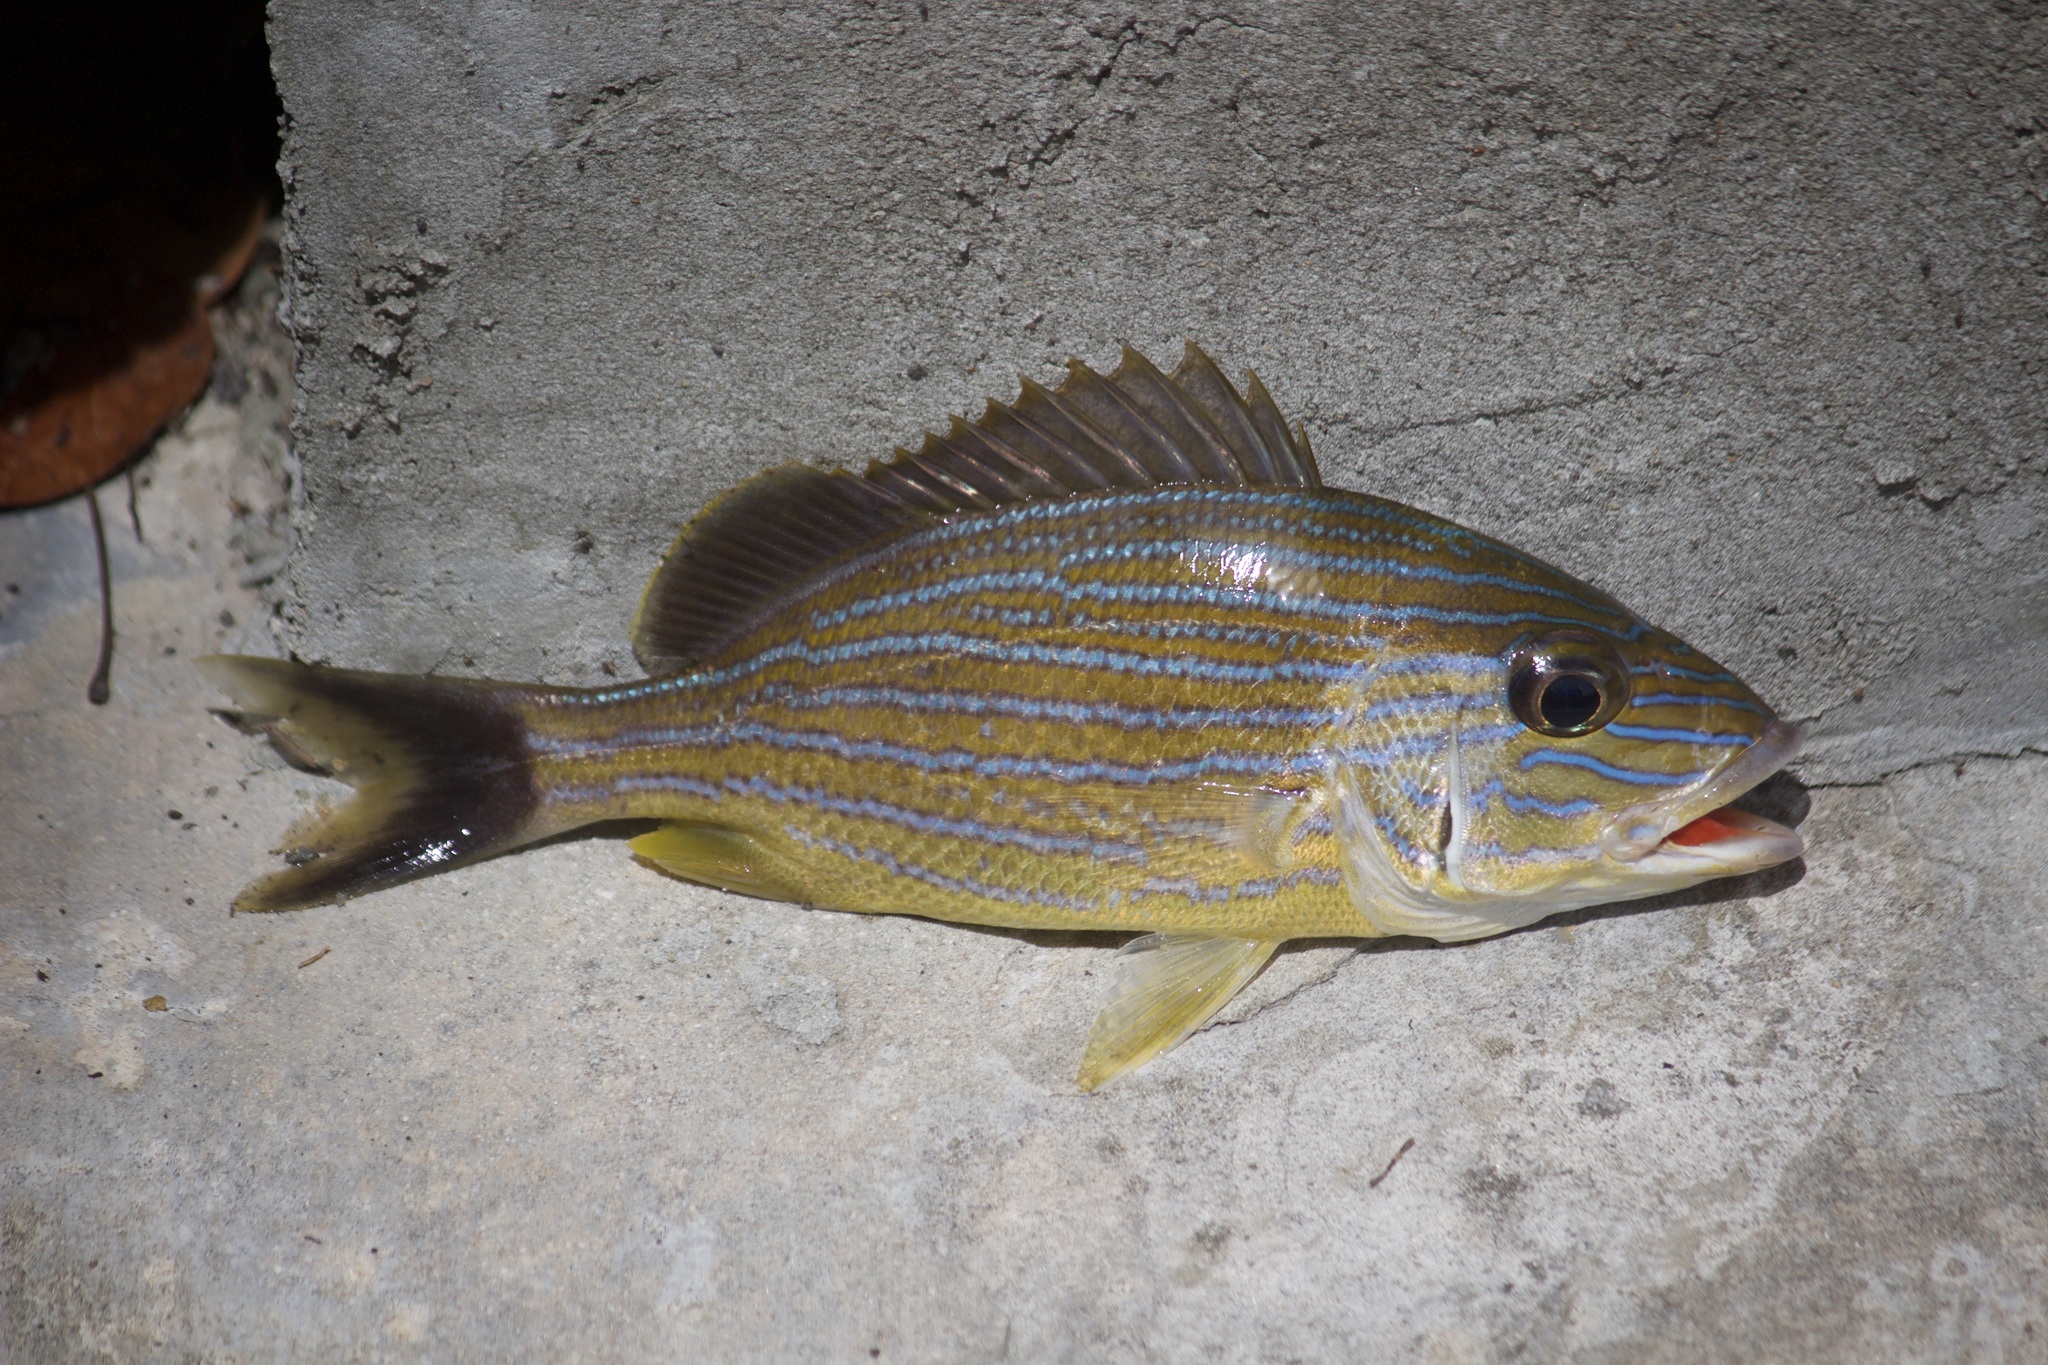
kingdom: Animalia
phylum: Chordata
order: Perciformes
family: Haemulidae
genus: Haemulon
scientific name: Haemulon sciurus
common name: Bluestriped grunt
